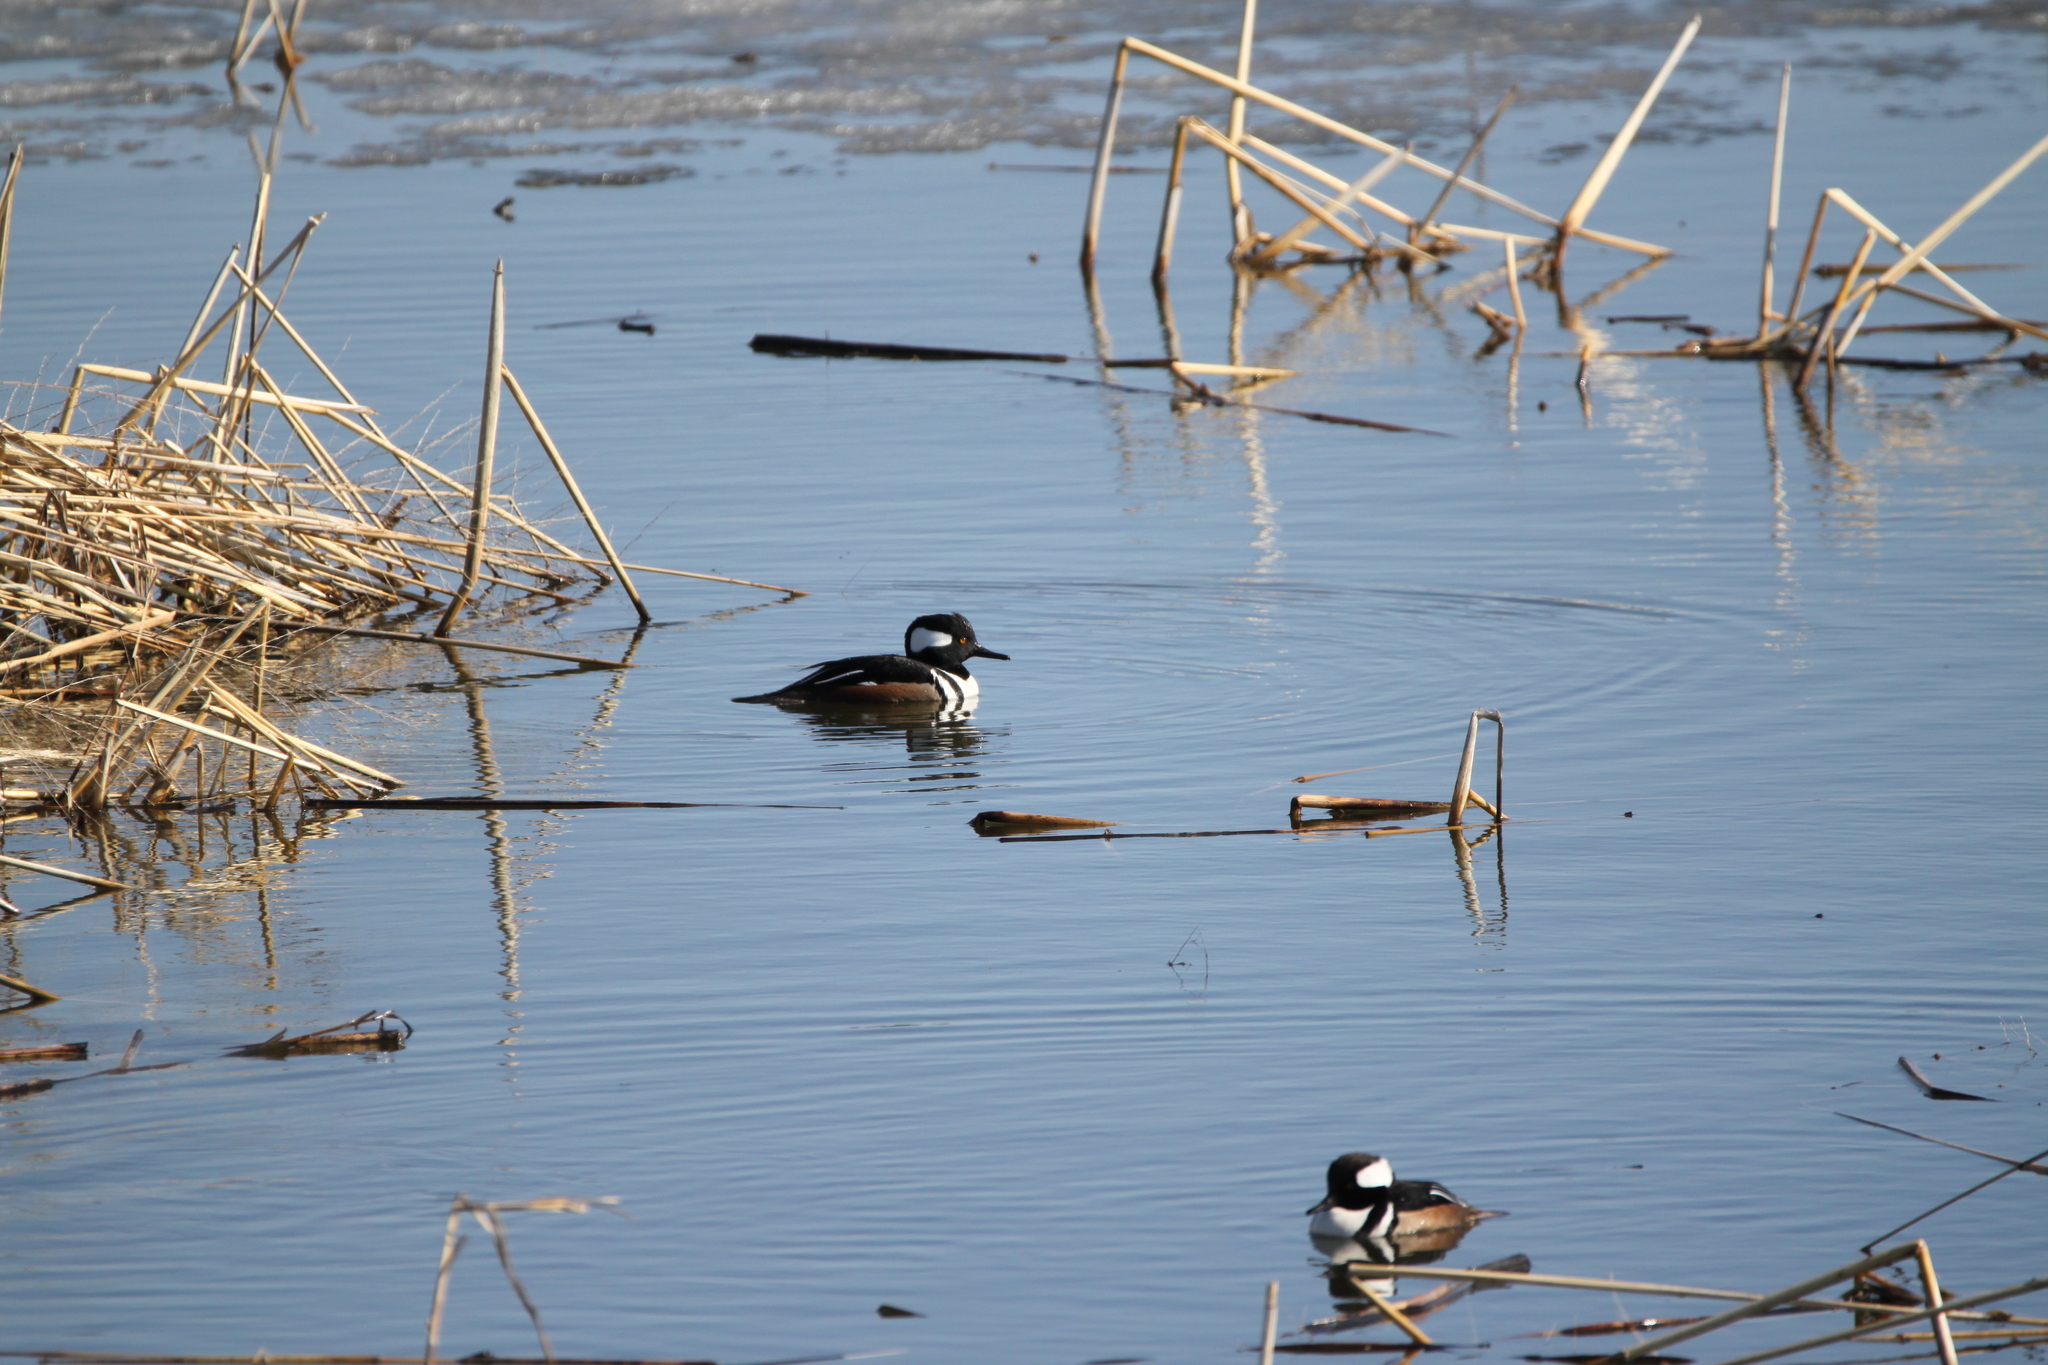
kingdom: Animalia
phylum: Chordata
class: Aves
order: Anseriformes
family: Anatidae
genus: Lophodytes
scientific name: Lophodytes cucullatus
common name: Hooded merganser
